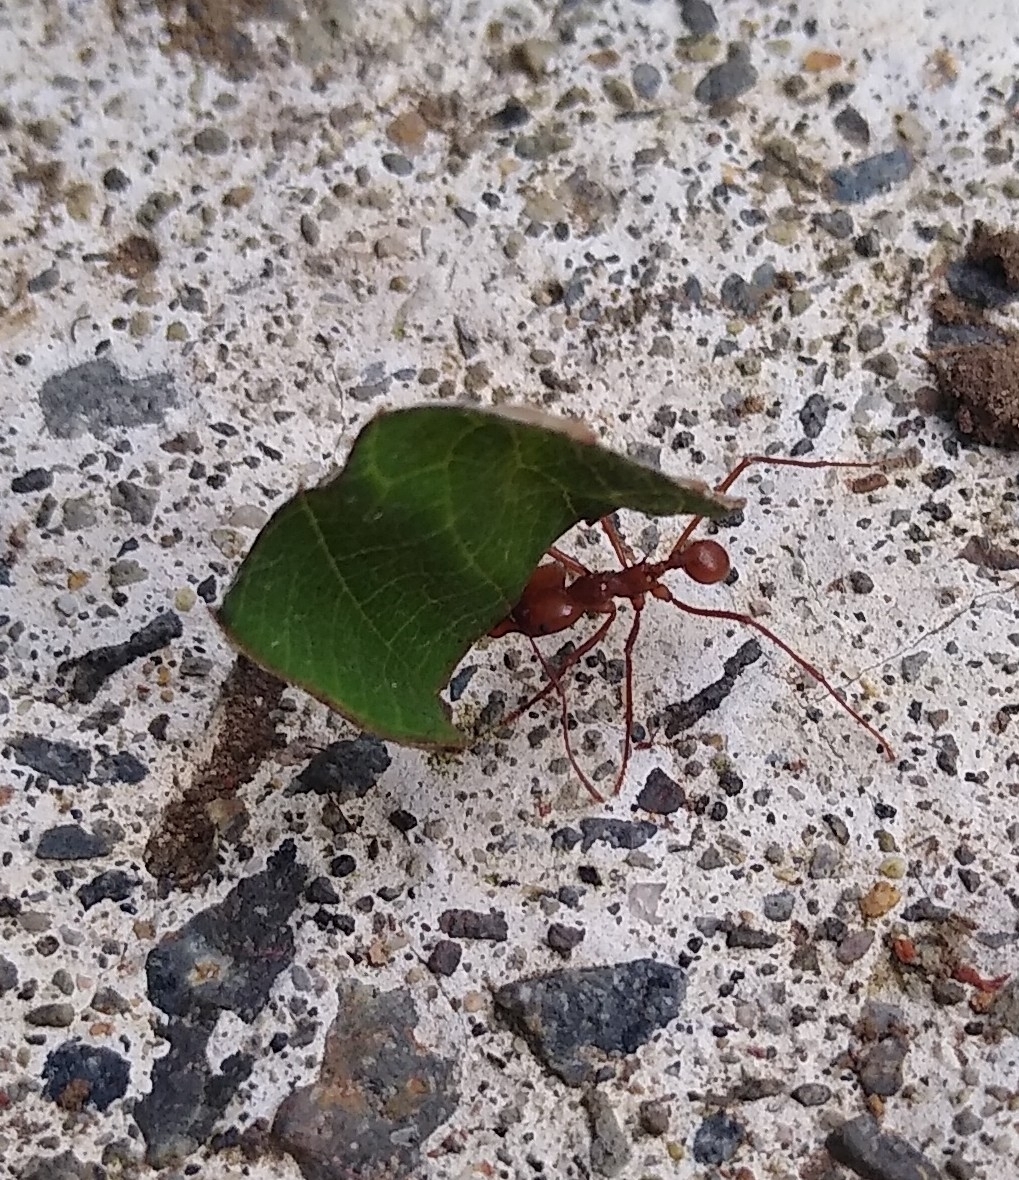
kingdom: Animalia
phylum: Arthropoda
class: Insecta
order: Hymenoptera
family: Formicidae
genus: Atta
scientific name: Atta cephalotes
